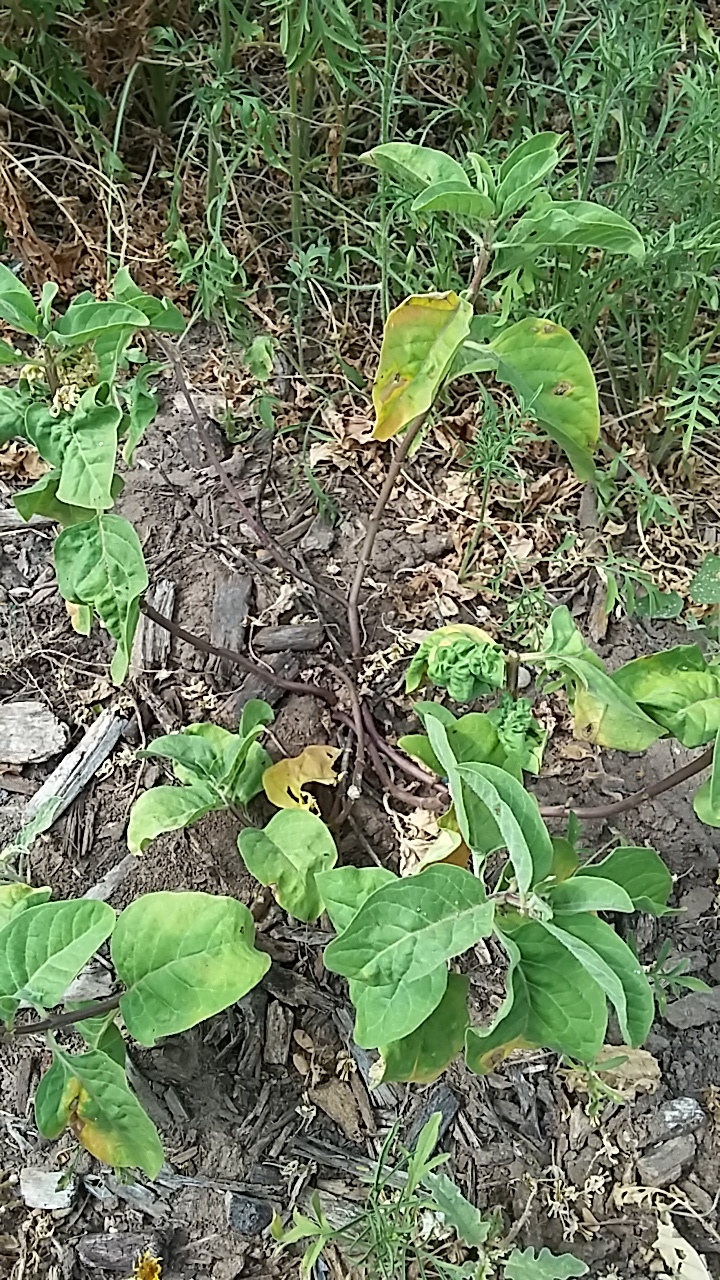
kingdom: Plantae
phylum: Tracheophyta
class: Magnoliopsida
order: Gentianales
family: Apocynaceae
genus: Asclepias
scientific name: Asclepias oenotheroides
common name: Zizotes milkweed
